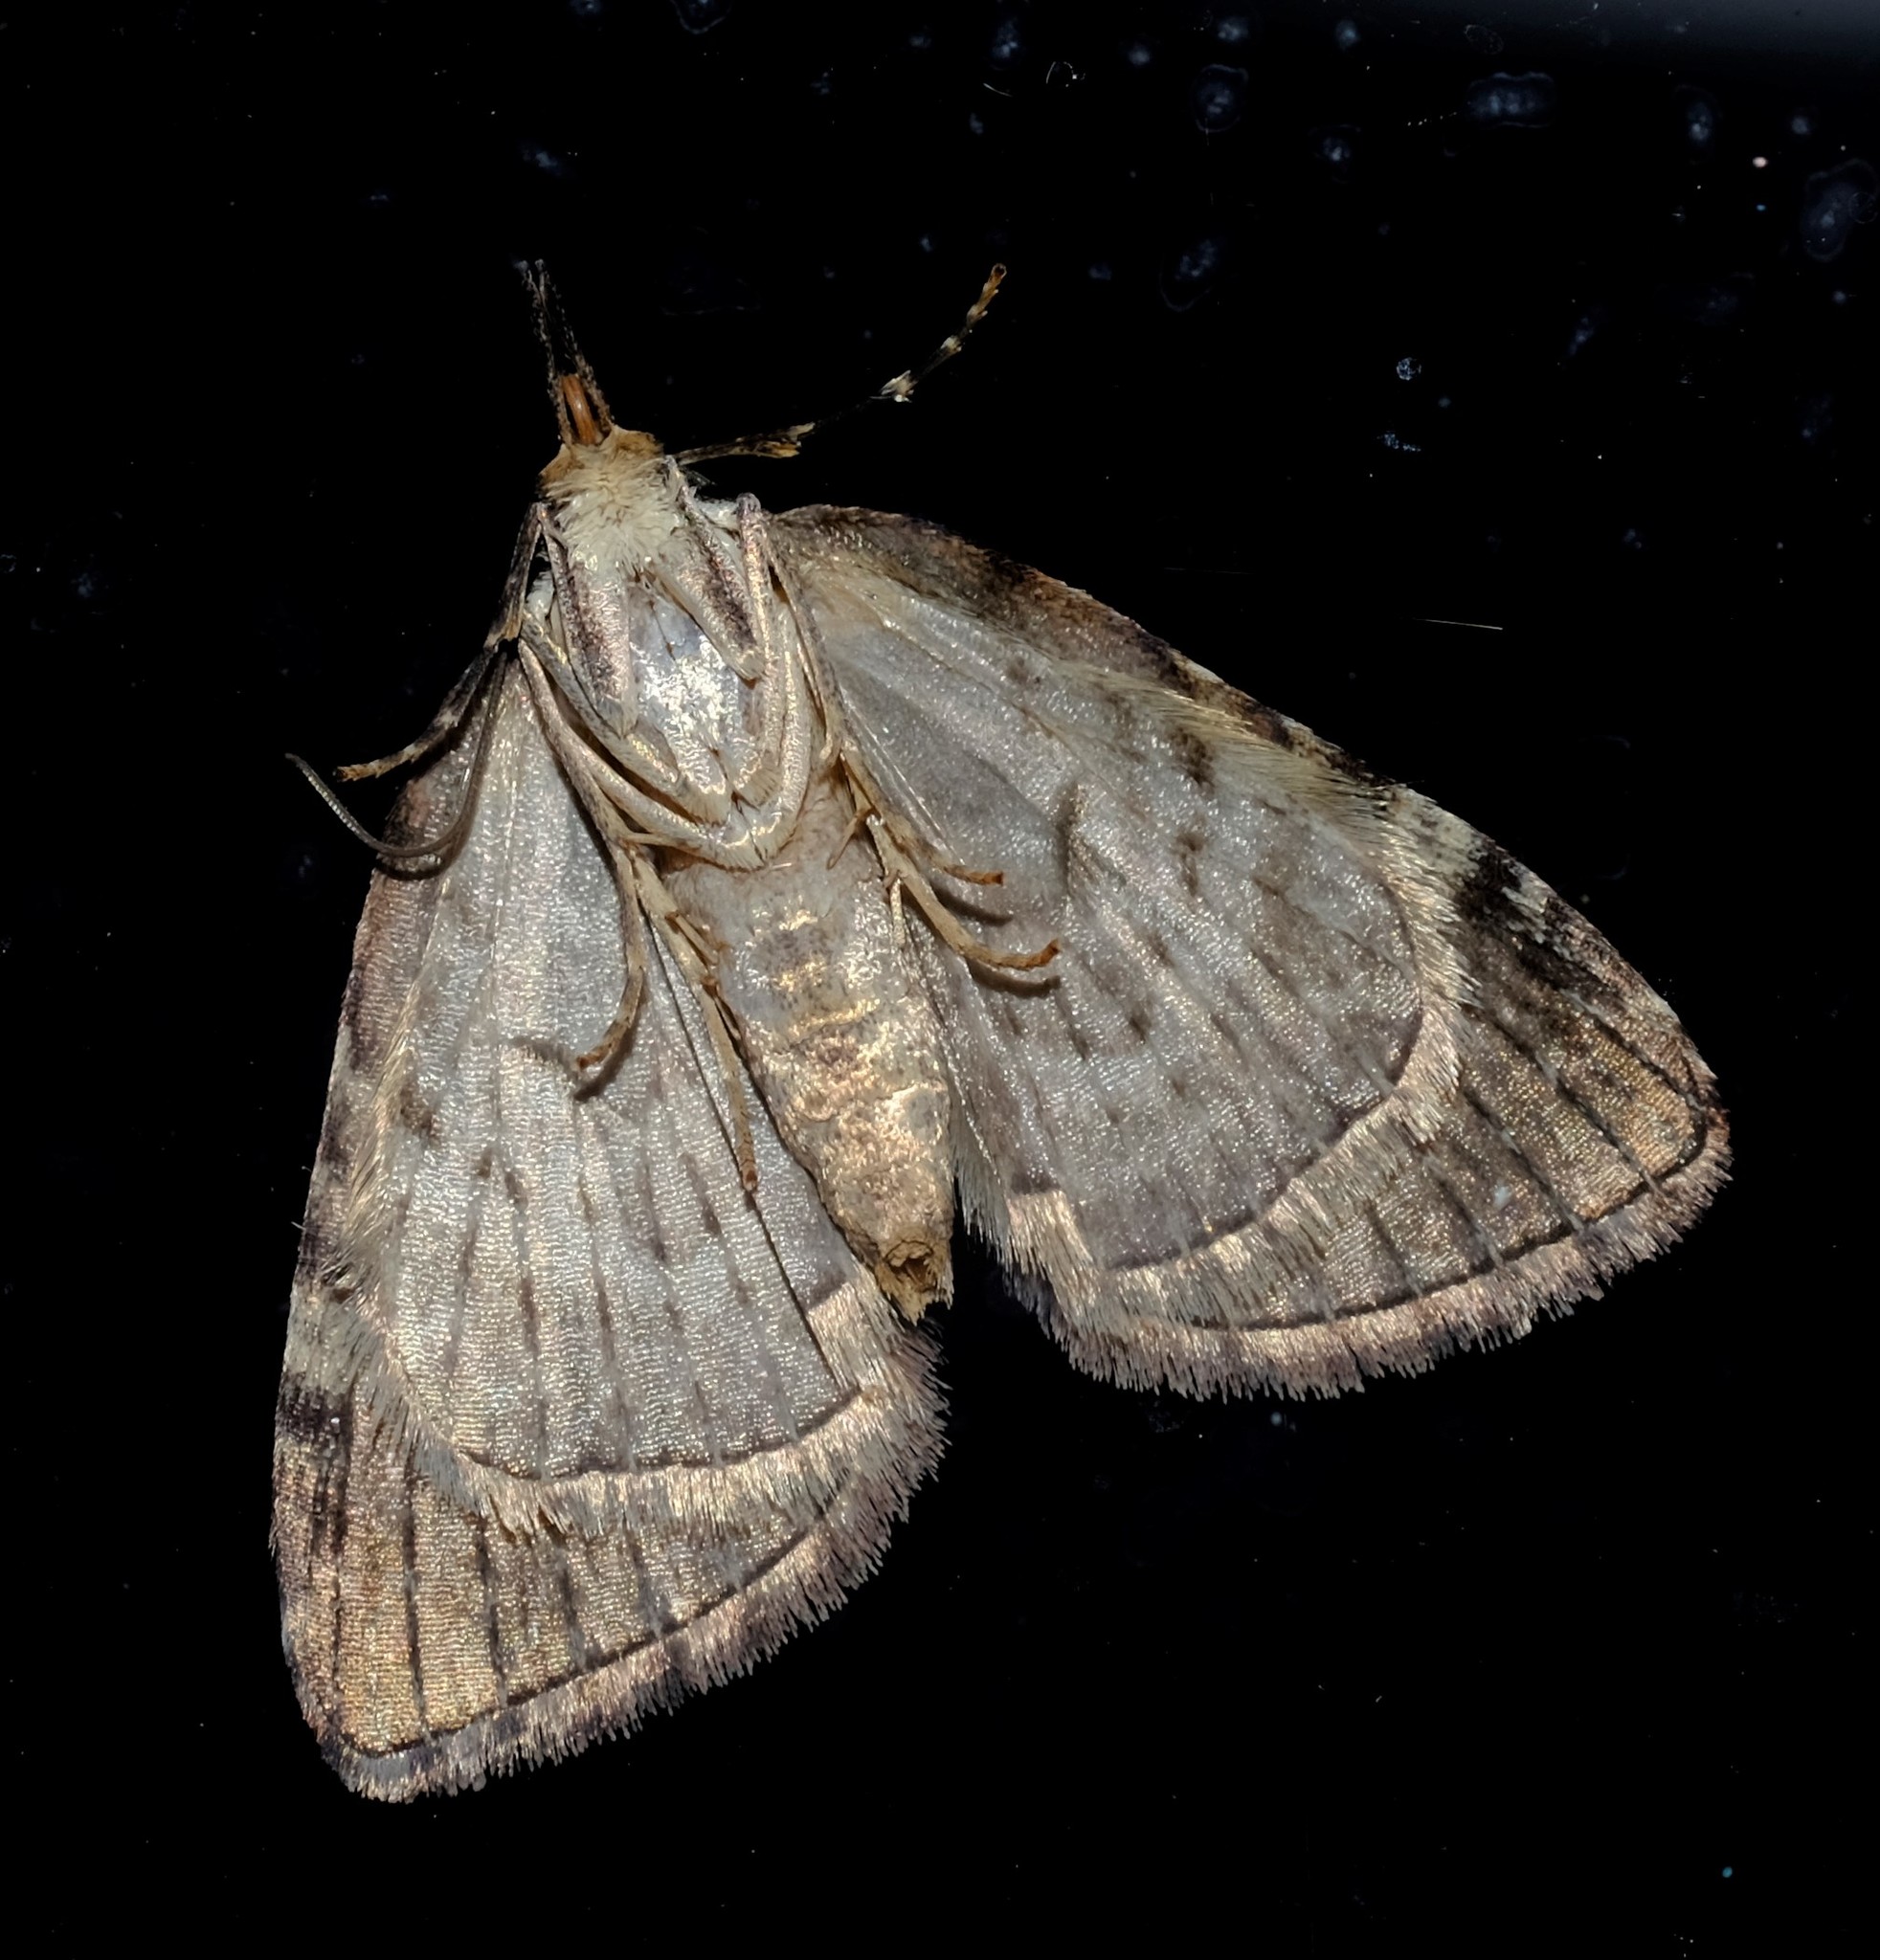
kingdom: Animalia
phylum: Arthropoda
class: Insecta
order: Lepidoptera
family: Geometridae
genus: Microdes
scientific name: Microdes diplodonta
